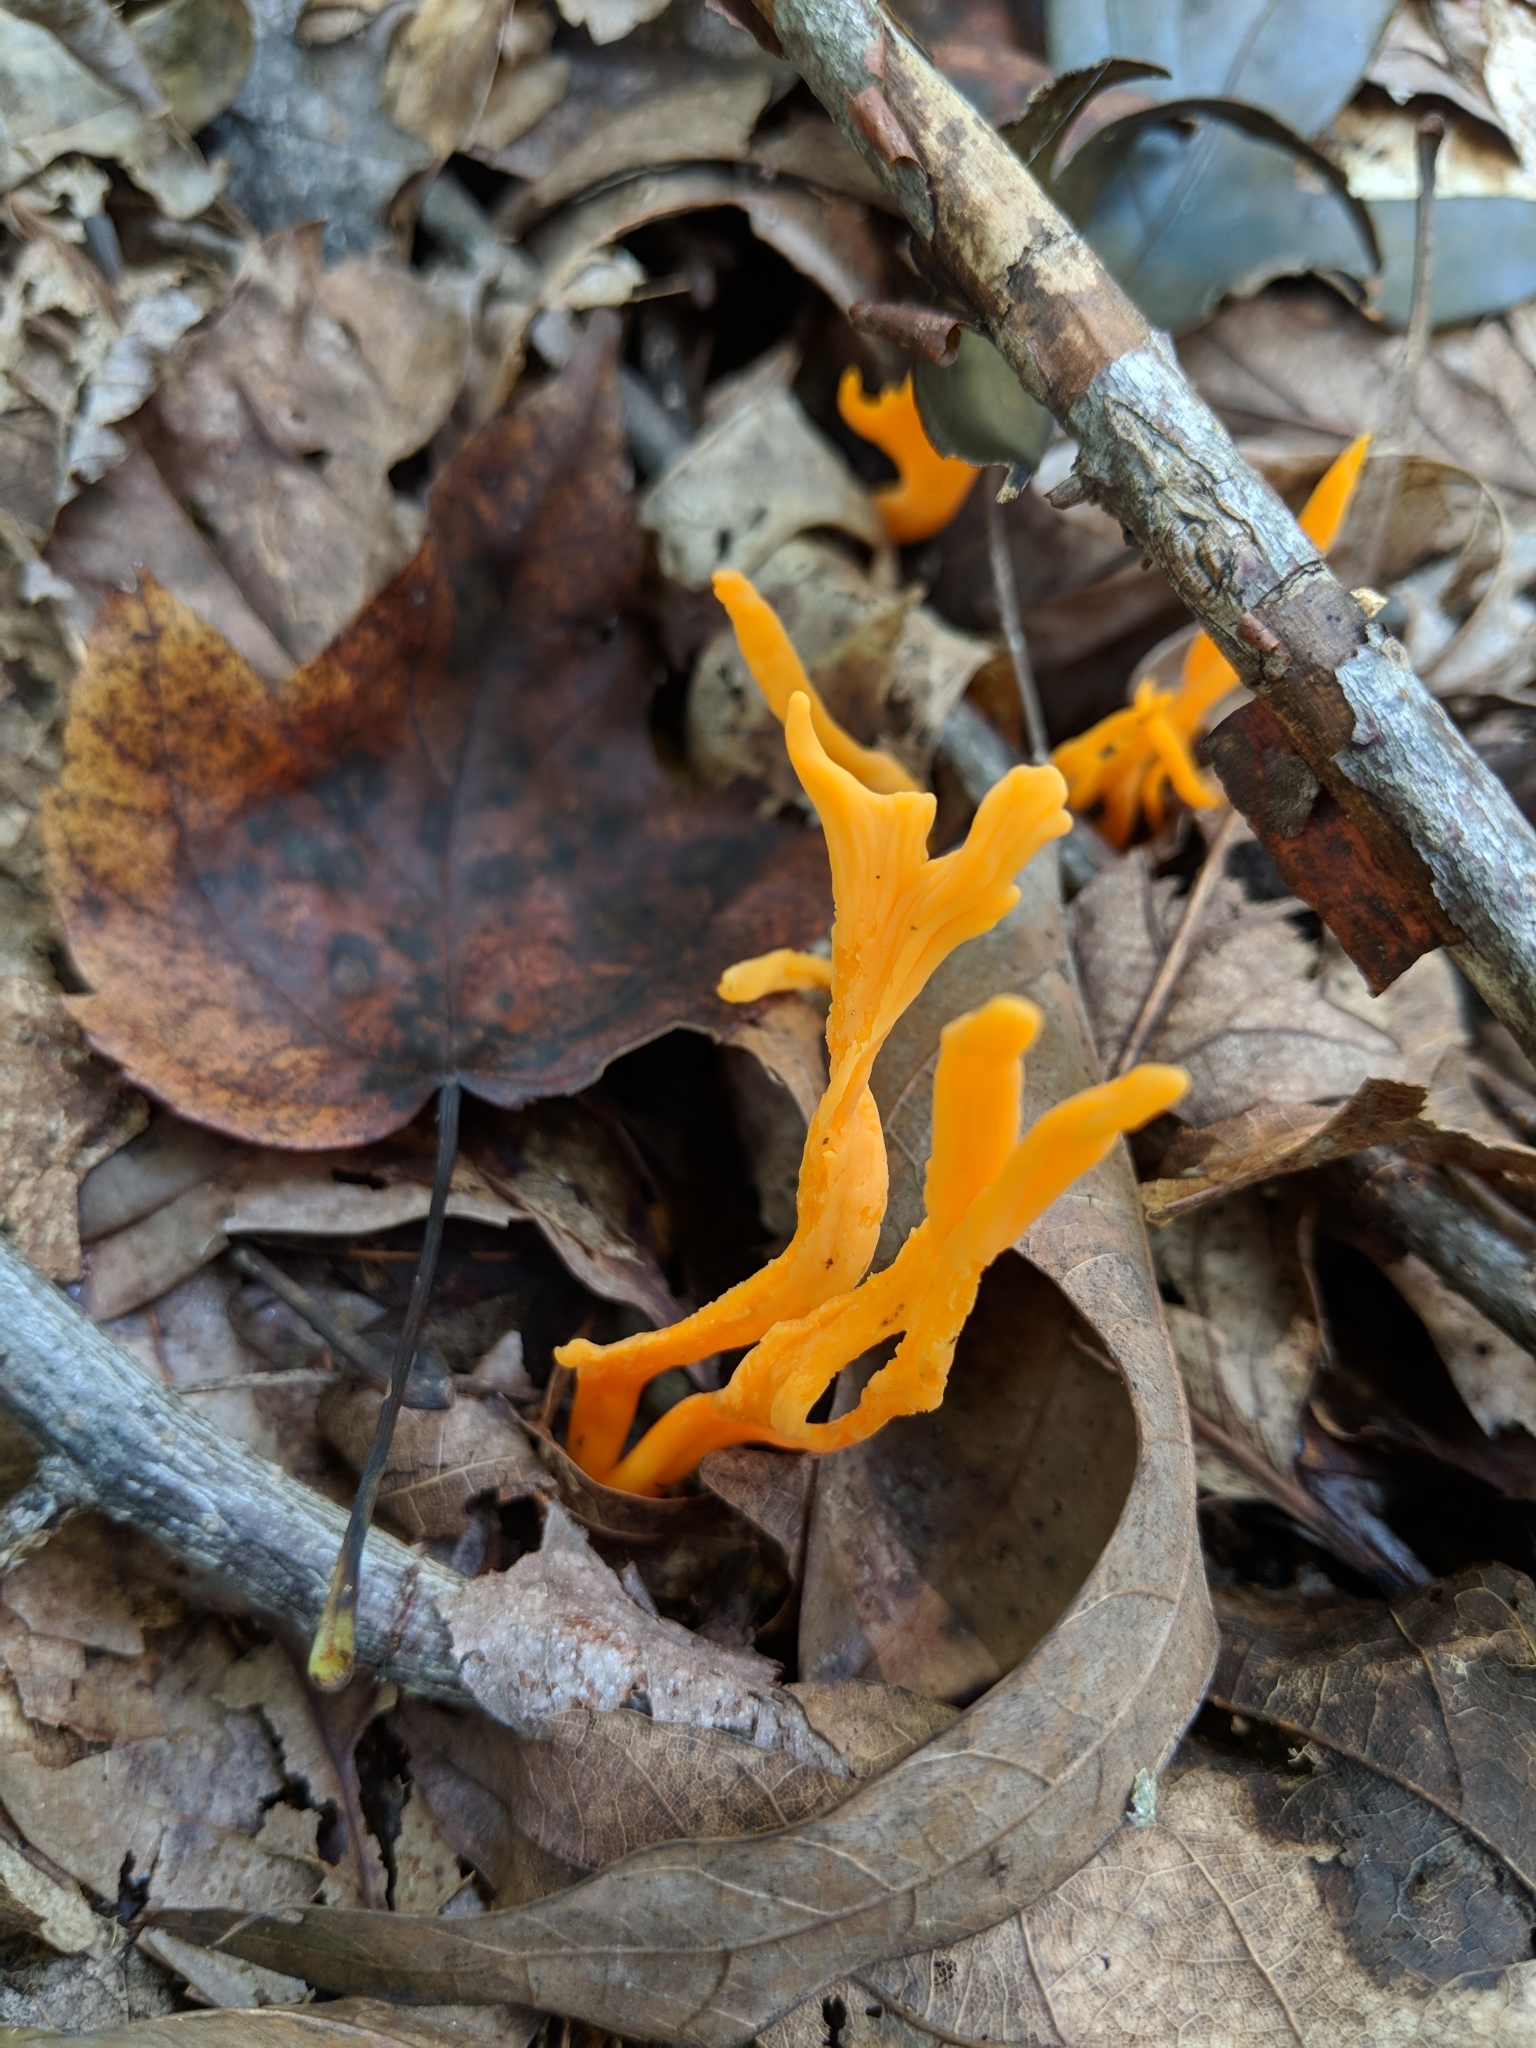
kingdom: Fungi
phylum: Basidiomycota
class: Dacrymycetes
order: Dacrymycetales
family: Dacrymycetaceae
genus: Calocera
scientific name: Calocera viscosa
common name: Yellow stagshorn
